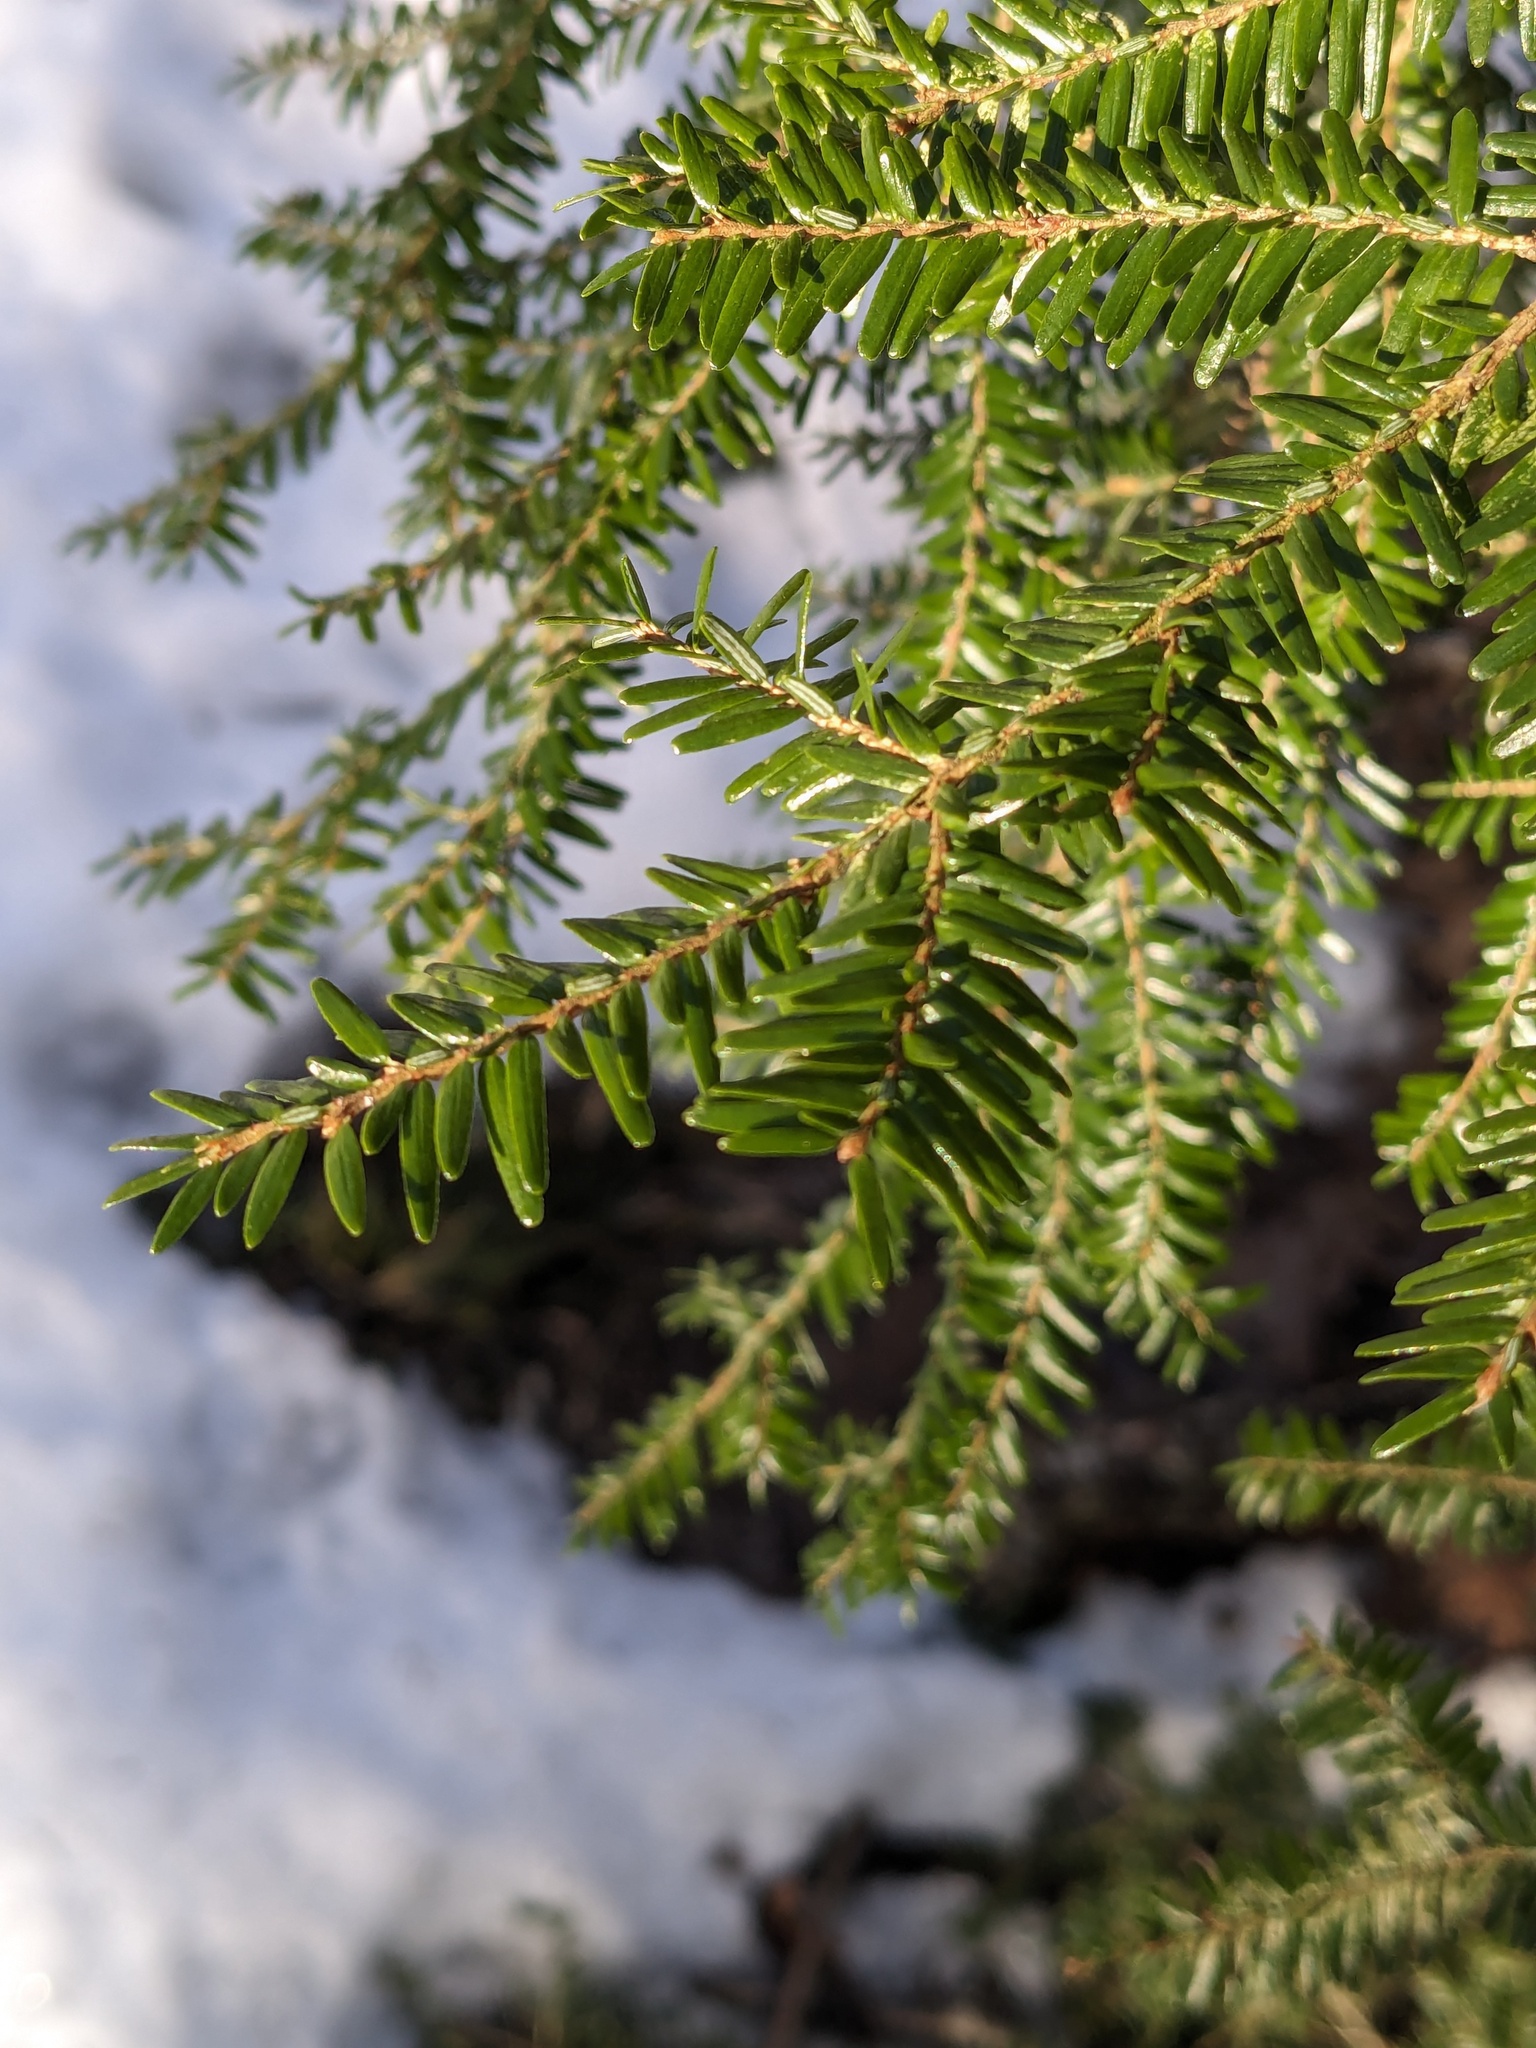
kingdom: Plantae
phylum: Tracheophyta
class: Pinopsida
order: Pinales
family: Pinaceae
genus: Tsuga
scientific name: Tsuga canadensis
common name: Eastern hemlock
